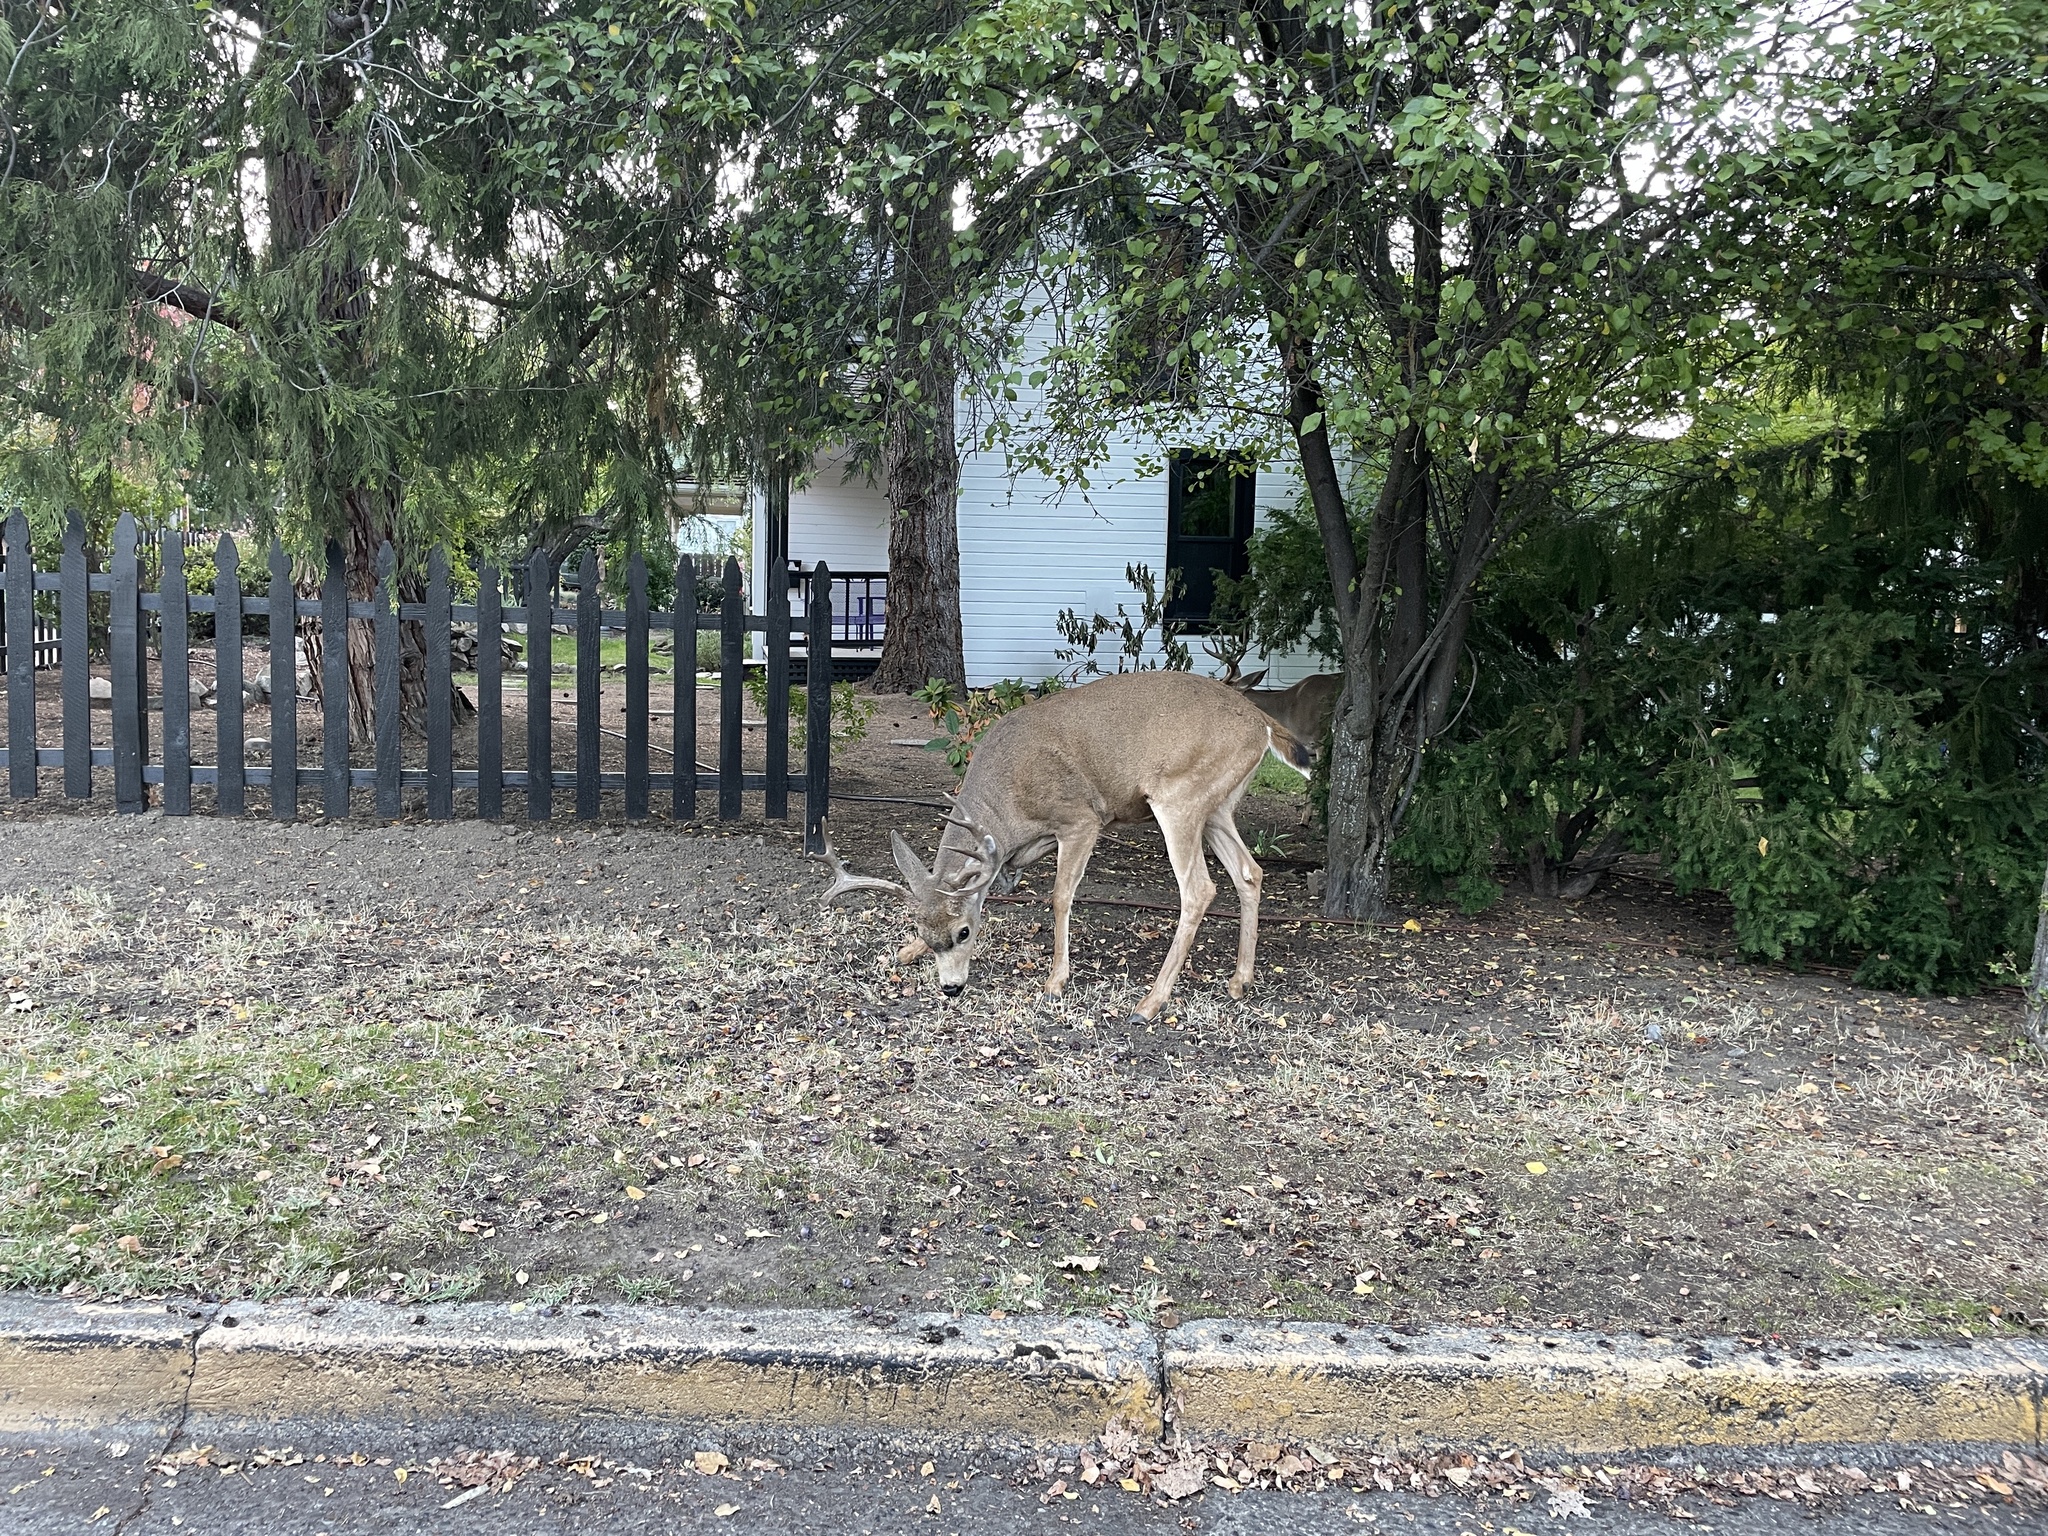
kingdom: Animalia
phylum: Chordata
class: Mammalia
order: Artiodactyla
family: Cervidae
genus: Odocoileus
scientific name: Odocoileus hemionus
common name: Mule deer
